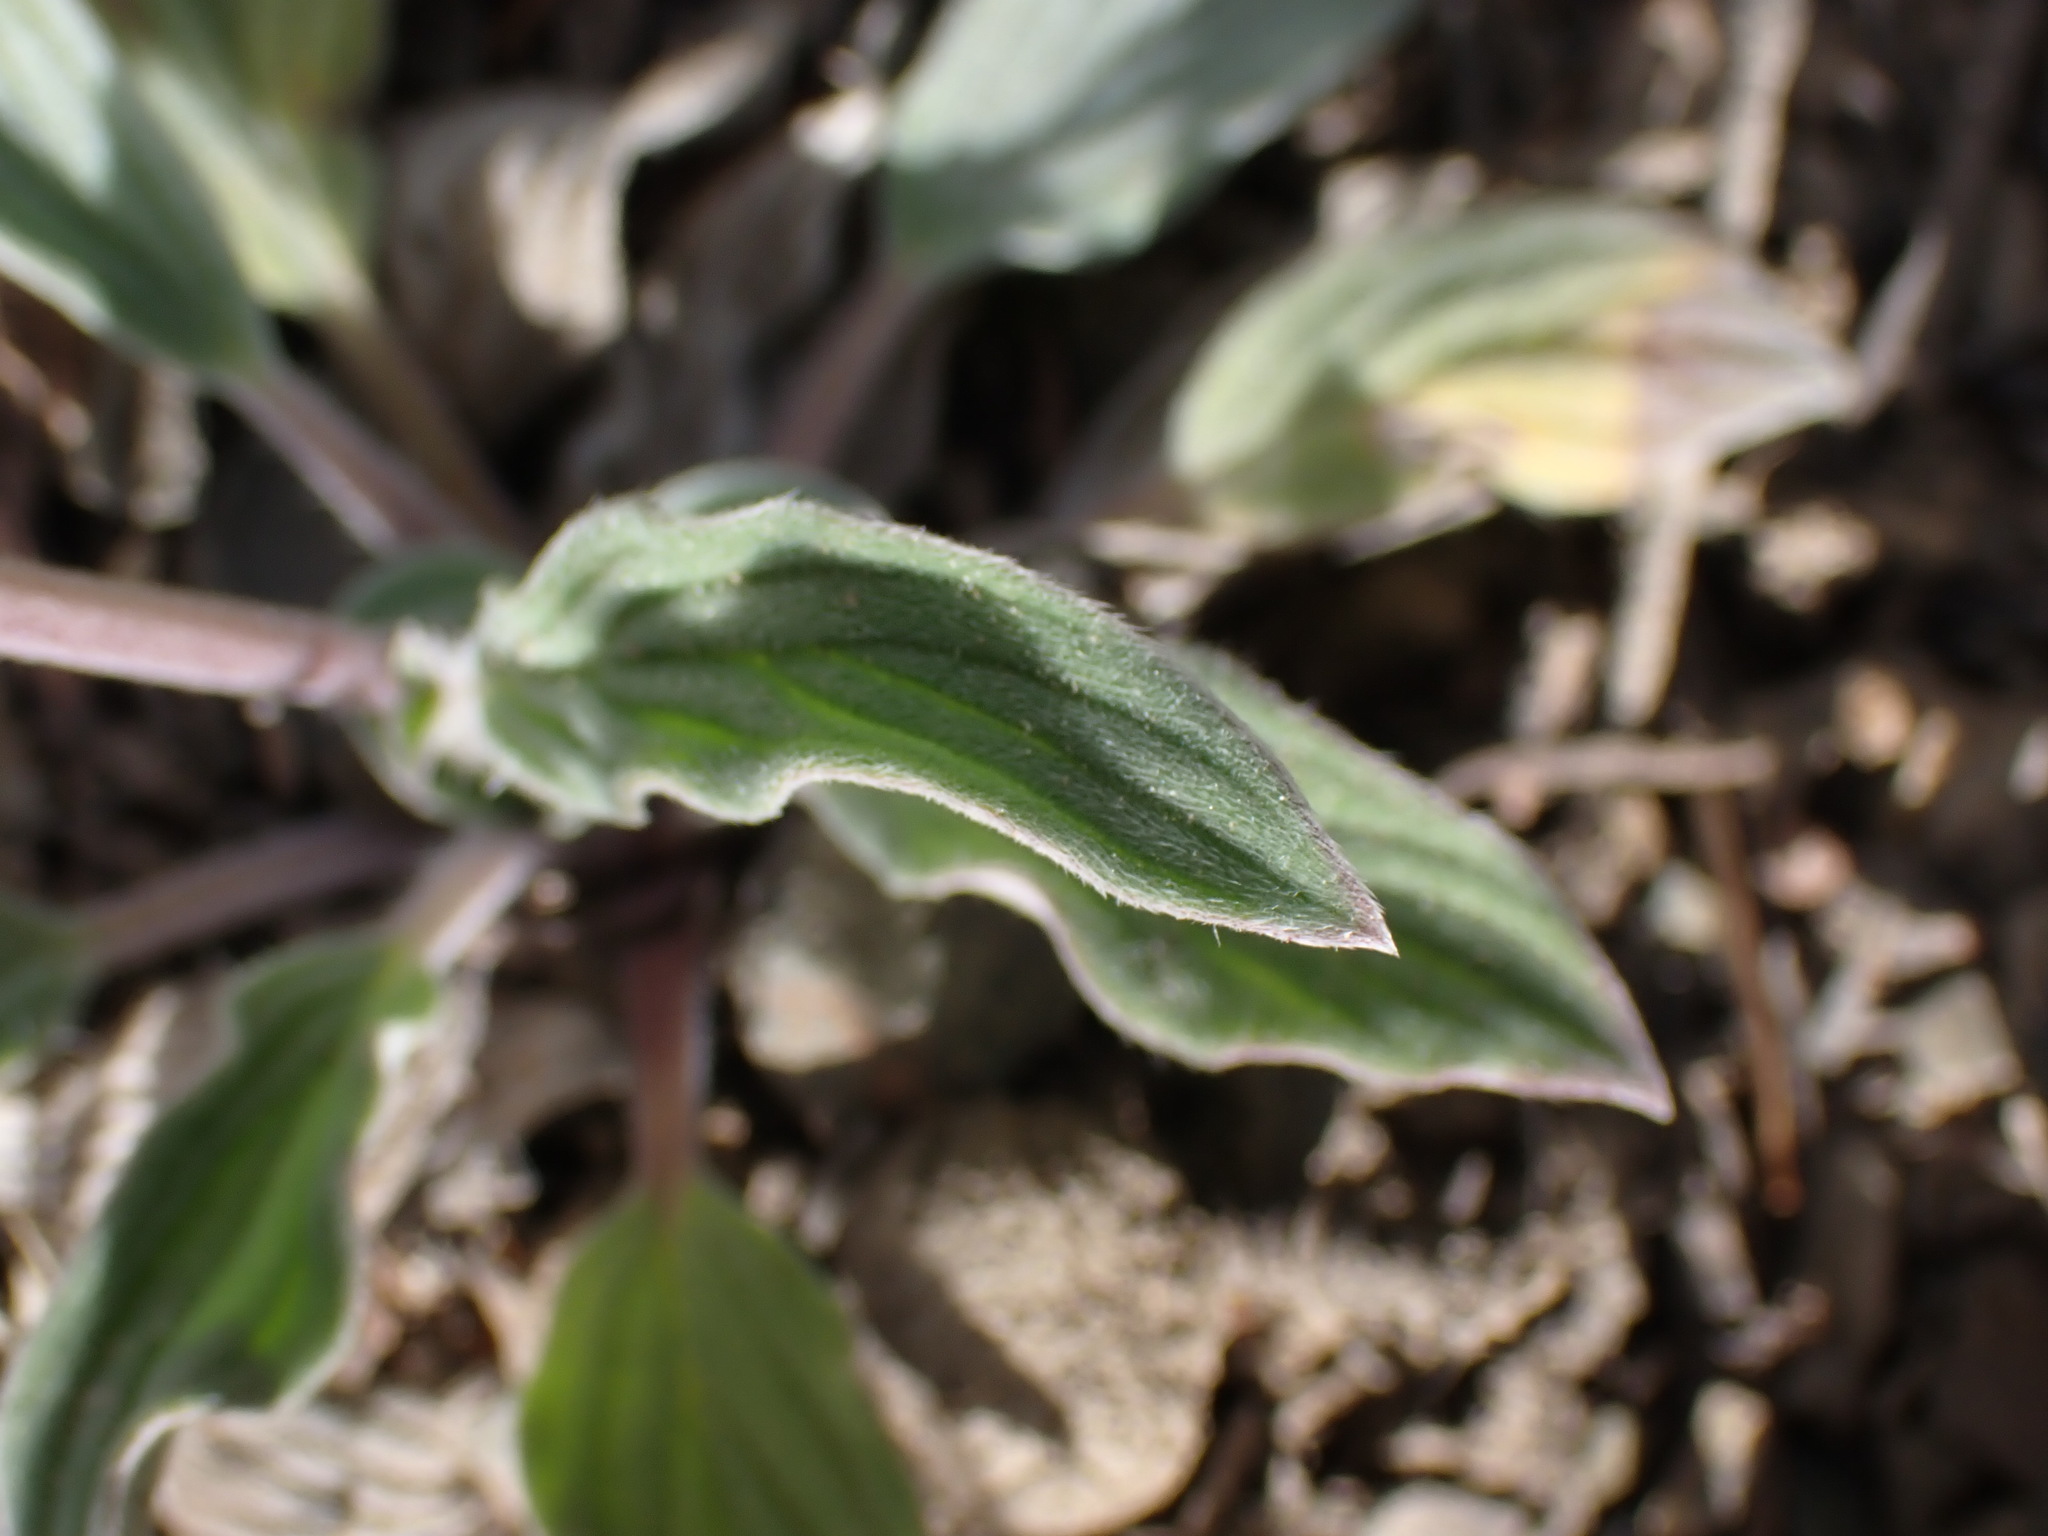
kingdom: Plantae
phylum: Tracheophyta
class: Magnoliopsida
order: Boraginales
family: Hydrophyllaceae
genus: Phacelia
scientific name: Phacelia hastata
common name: Silver-leaved phacelia
